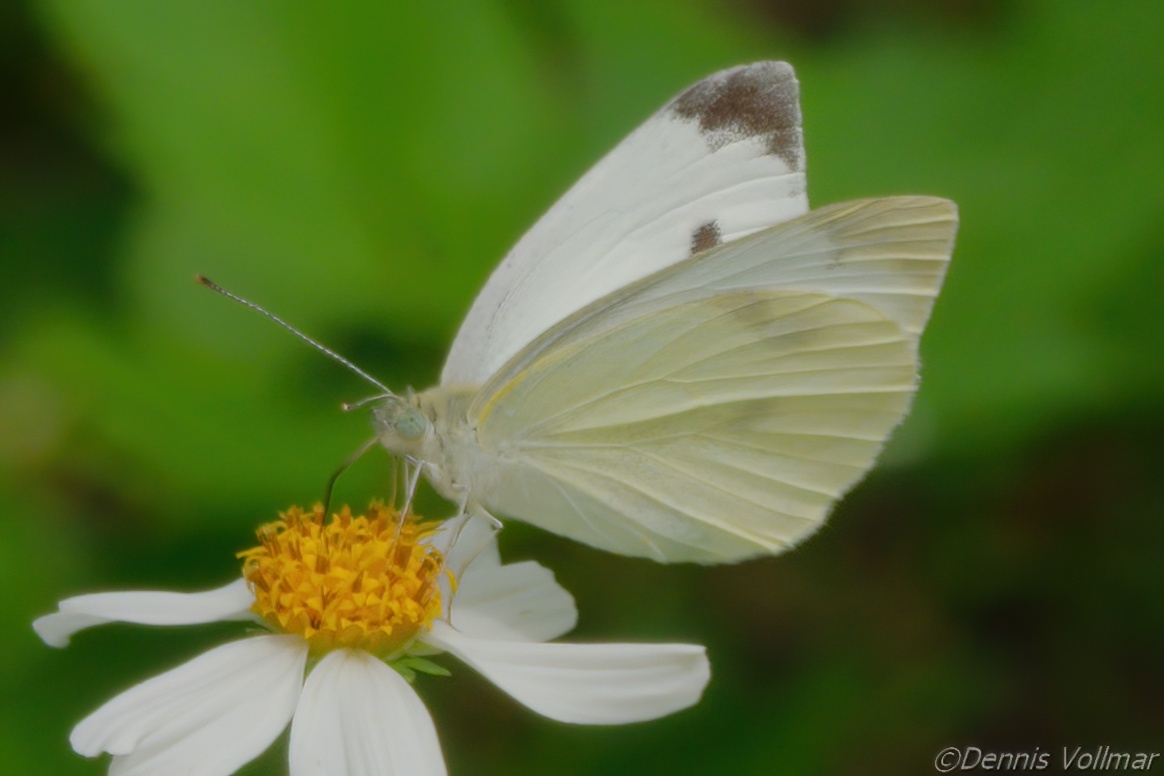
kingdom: Animalia
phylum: Arthropoda
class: Insecta
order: Lepidoptera
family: Pieridae
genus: Pieris
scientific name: Pieris rapae
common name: Small white
